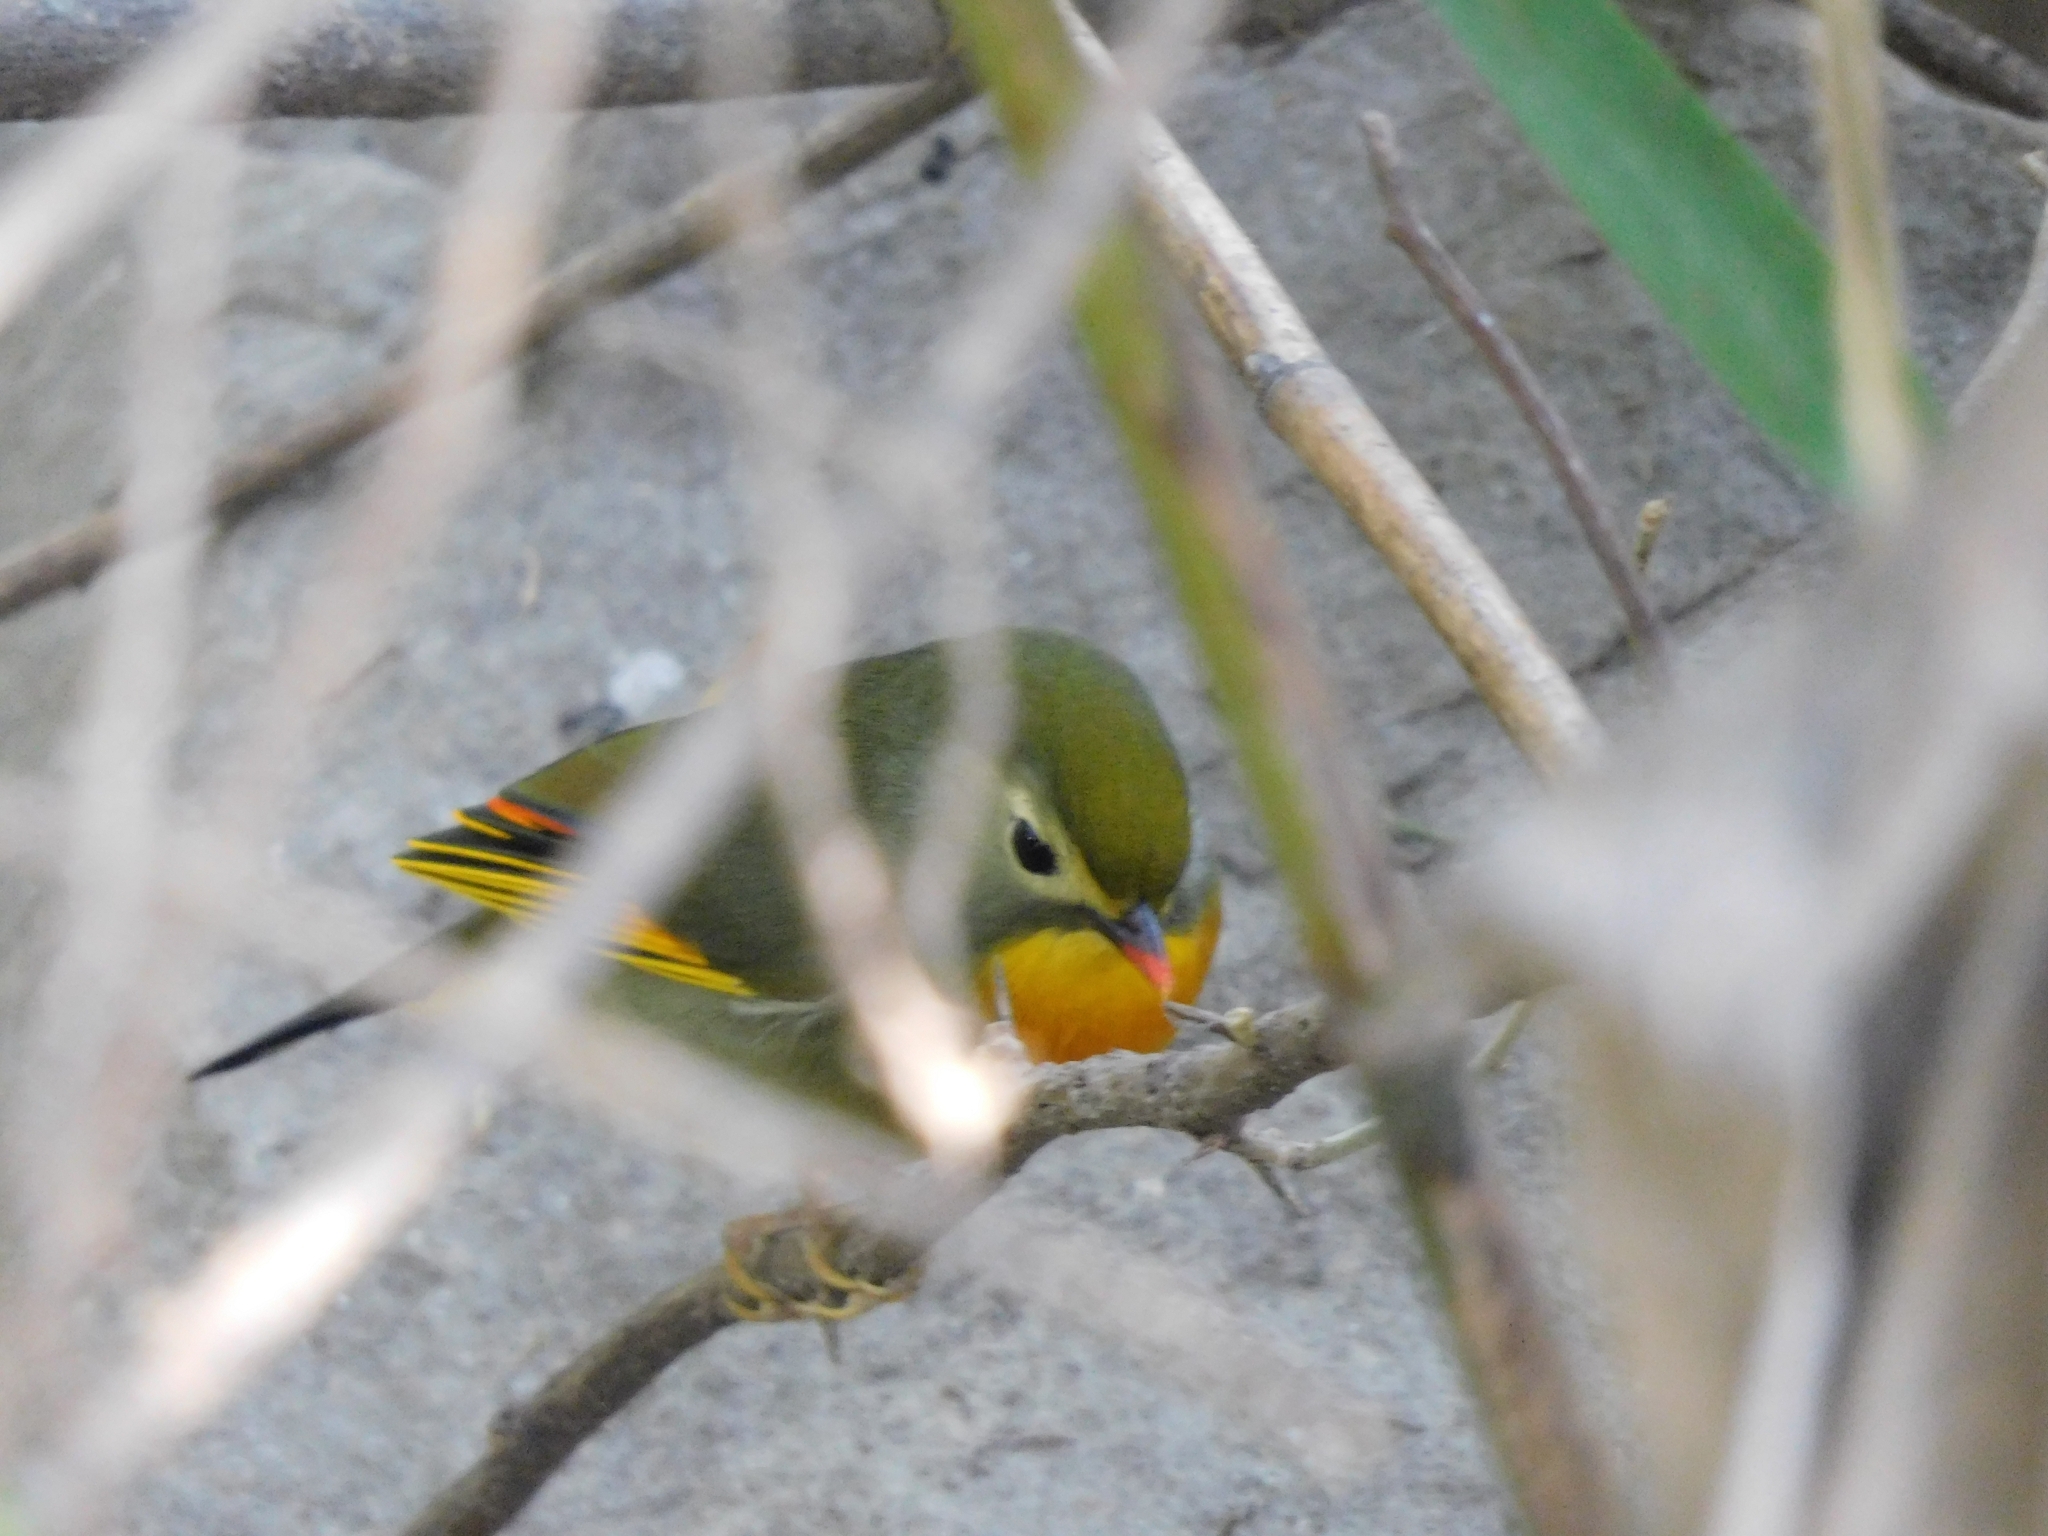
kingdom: Animalia
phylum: Chordata
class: Aves
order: Passeriformes
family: Leiothrichidae
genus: Leiothrix
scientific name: Leiothrix lutea
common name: Red-billed leiothrix
